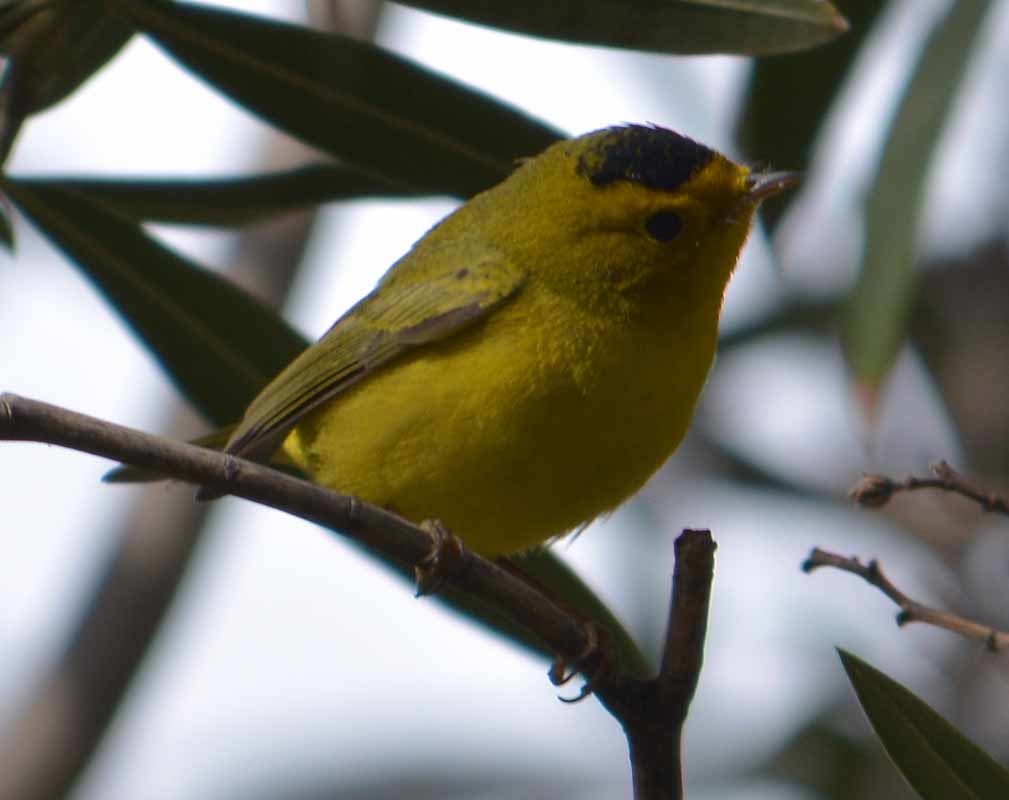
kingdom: Animalia
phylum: Chordata
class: Aves
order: Passeriformes
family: Parulidae
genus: Cardellina
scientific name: Cardellina pusilla
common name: Wilson's warbler
